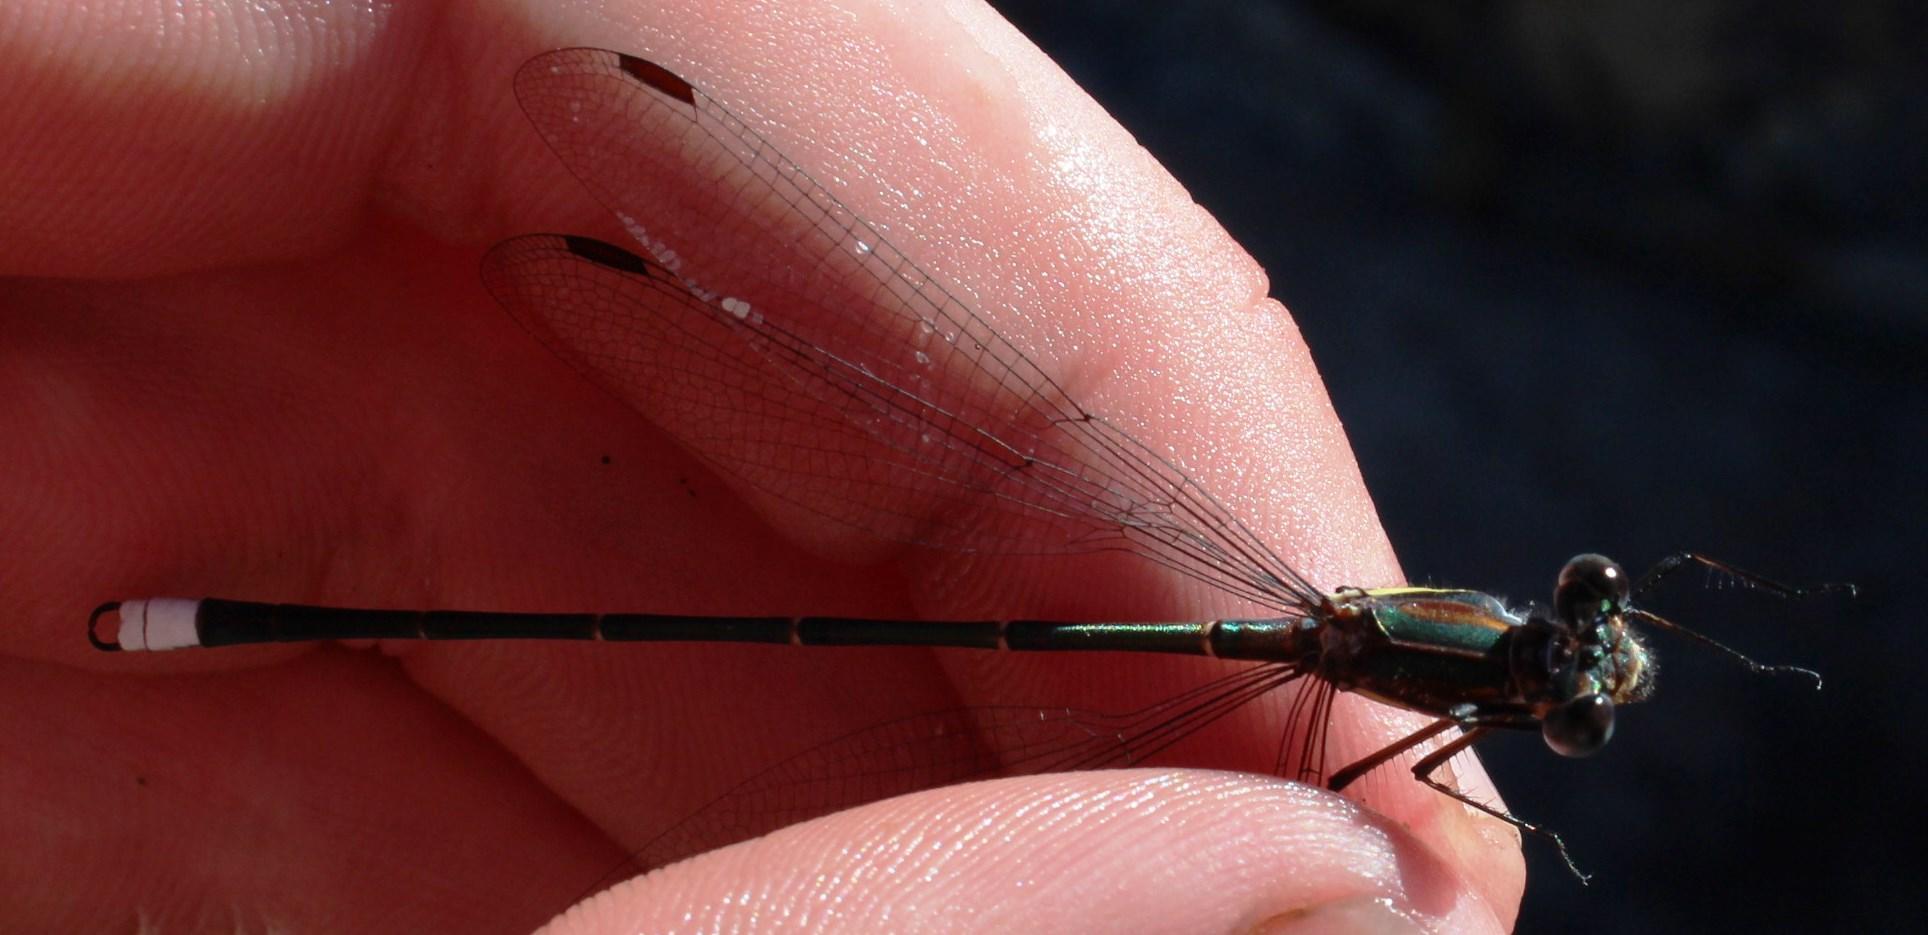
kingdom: Animalia
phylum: Arthropoda
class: Insecta
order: Odonata
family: Synlestidae
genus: Chlorolestes
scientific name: Chlorolestes conspicuus
